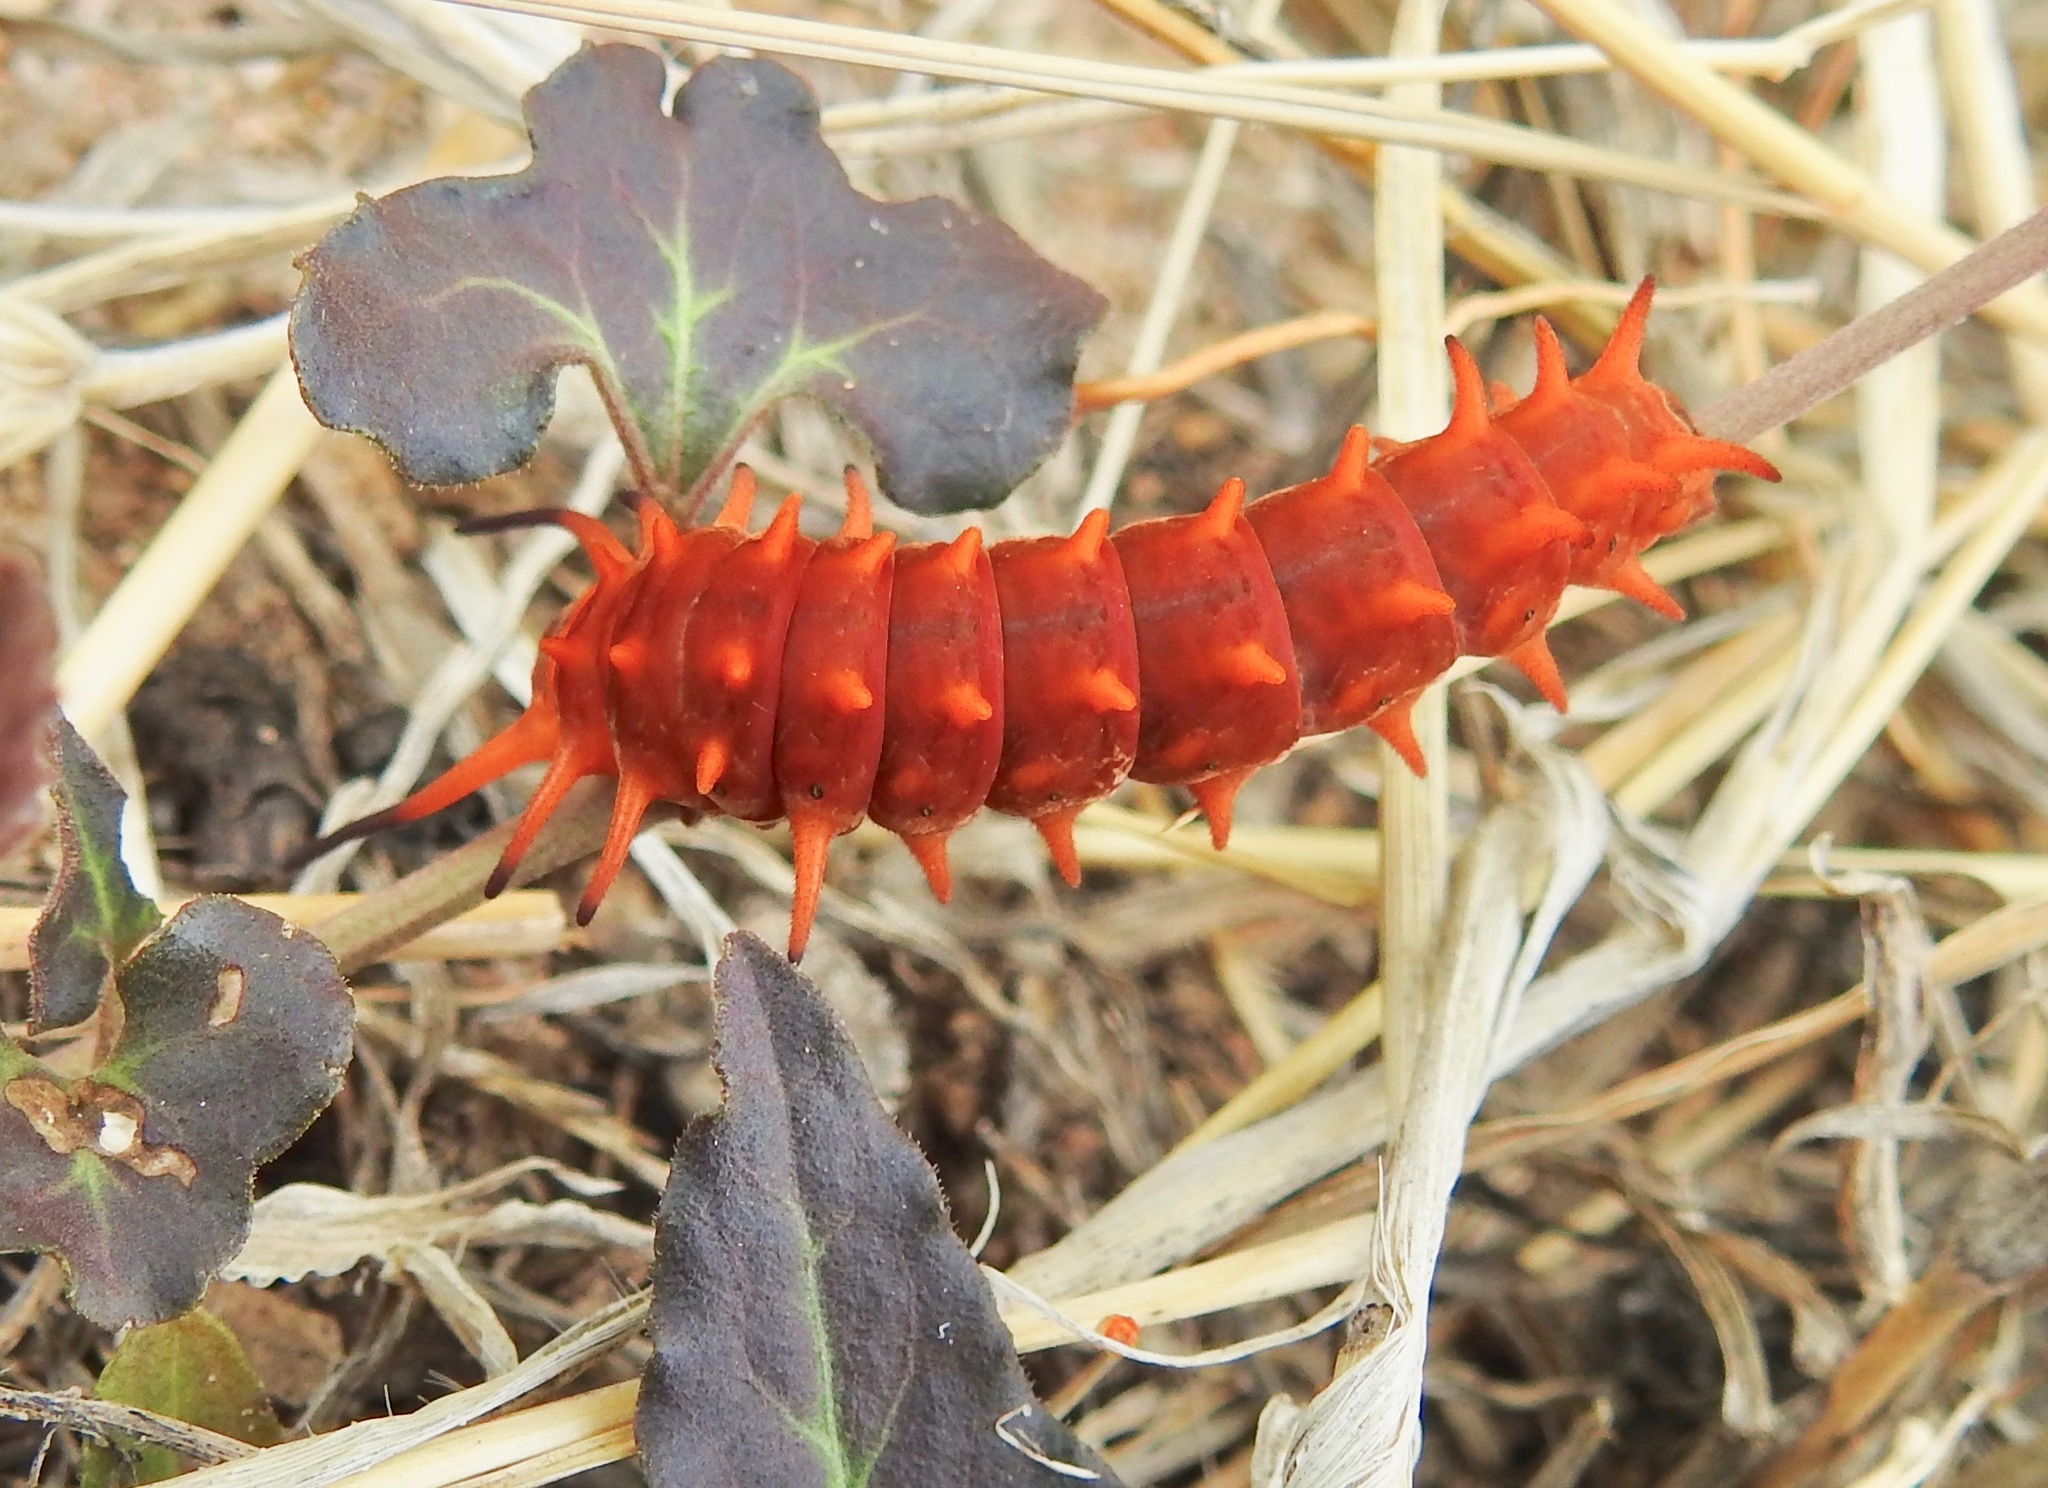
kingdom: Animalia
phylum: Arthropoda
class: Insecta
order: Lepidoptera
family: Papilionidae
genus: Battus
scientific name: Battus philenor
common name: Pipevine swallowtail
